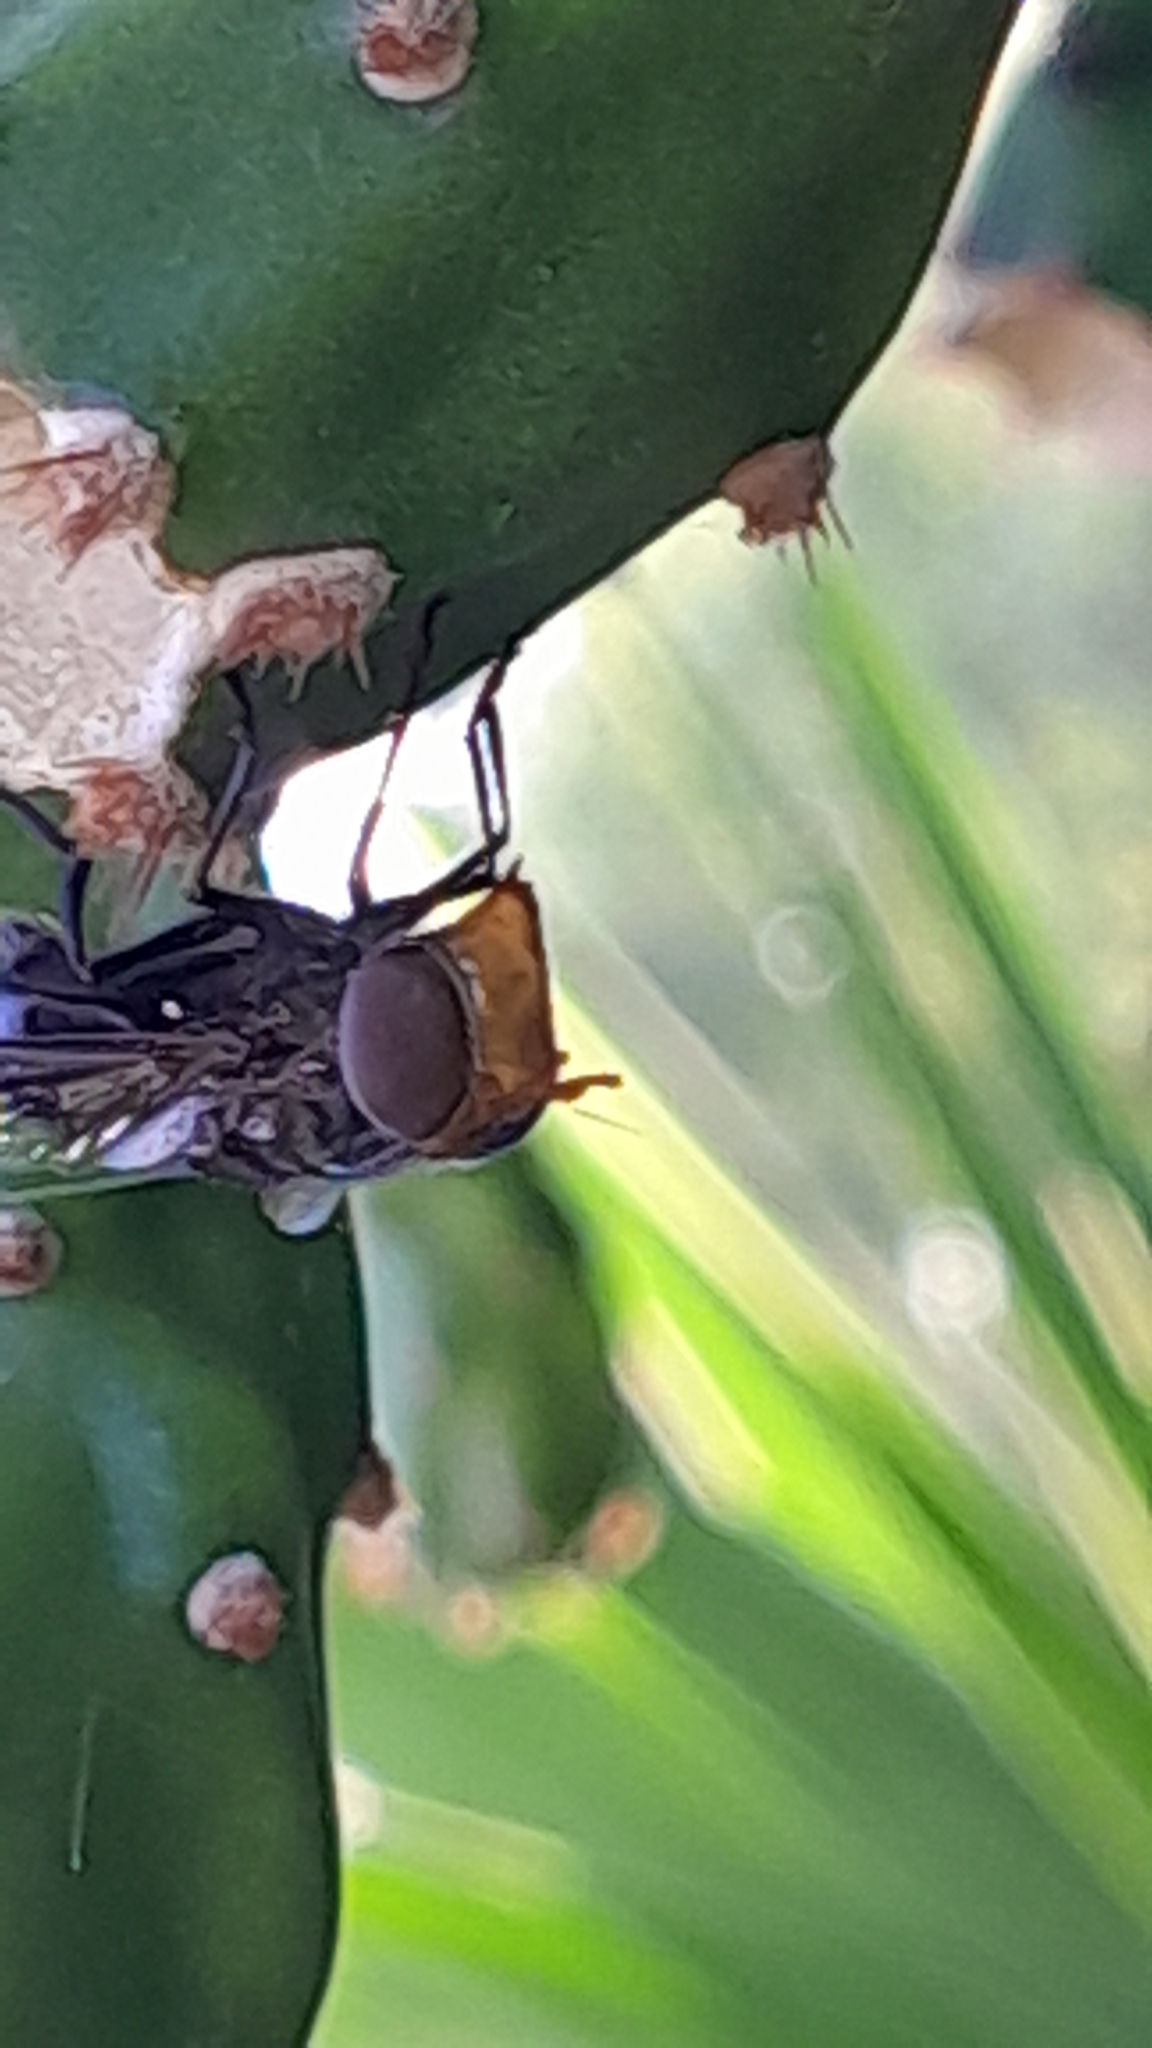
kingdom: Animalia
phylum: Arthropoda
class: Insecta
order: Diptera
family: Syrphidae
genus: Copestylum
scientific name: Copestylum spinigerum
